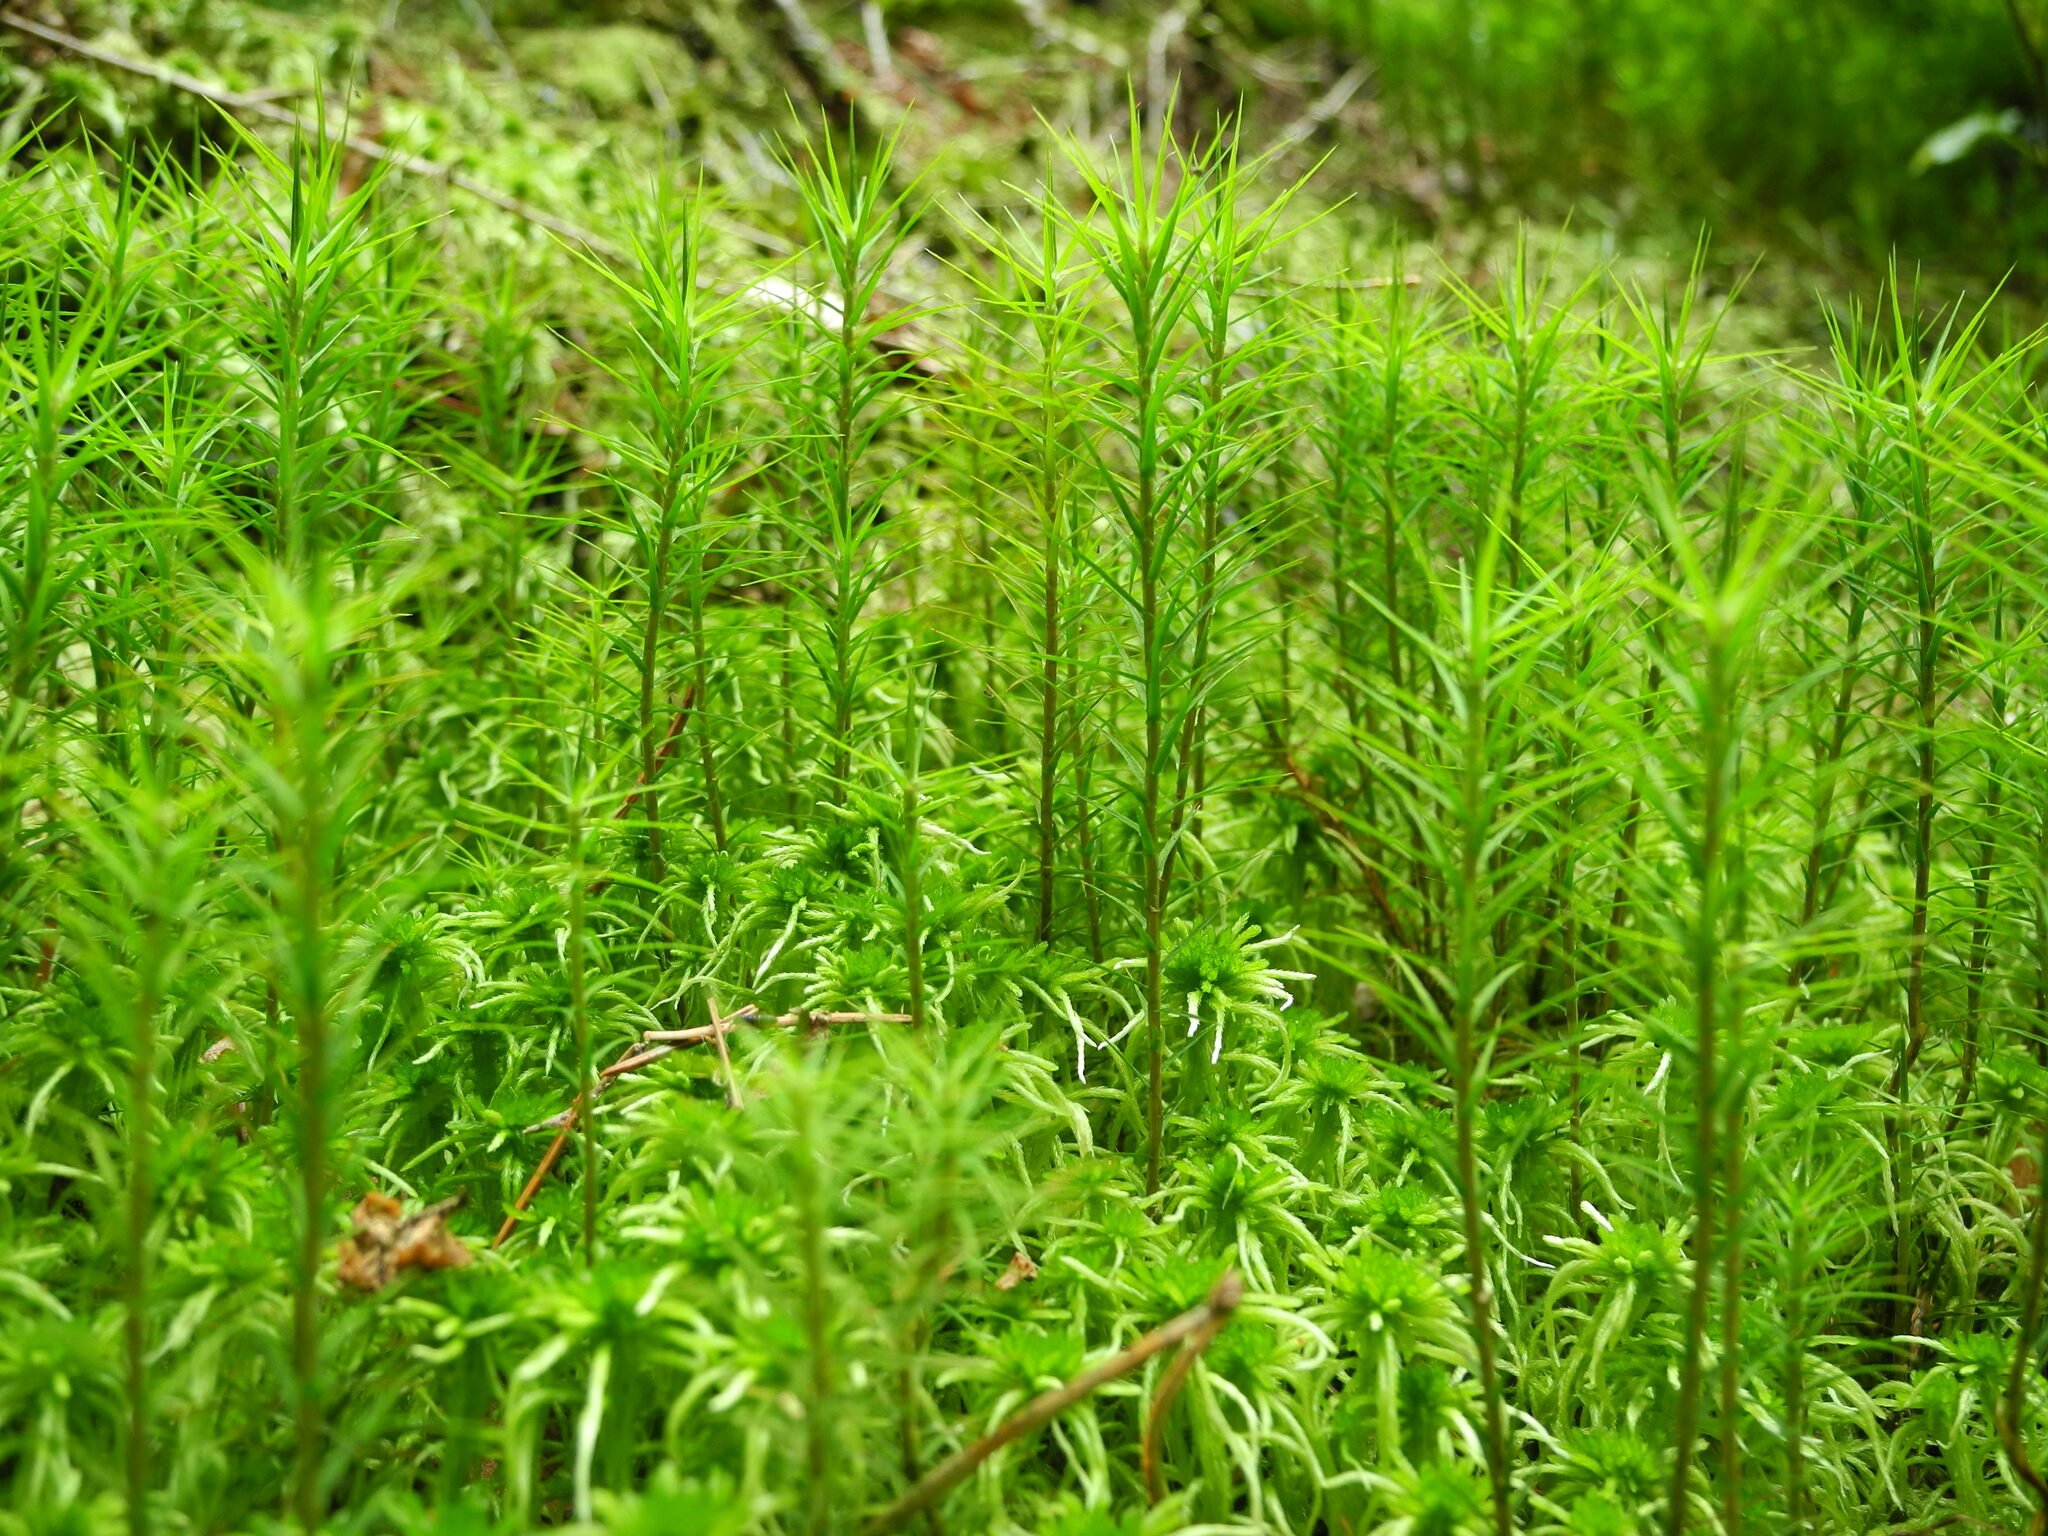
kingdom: Plantae
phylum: Bryophyta
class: Polytrichopsida
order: Polytrichales
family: Polytrichaceae
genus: Polytrichum
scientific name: Polytrichum commune
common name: Common haircap
